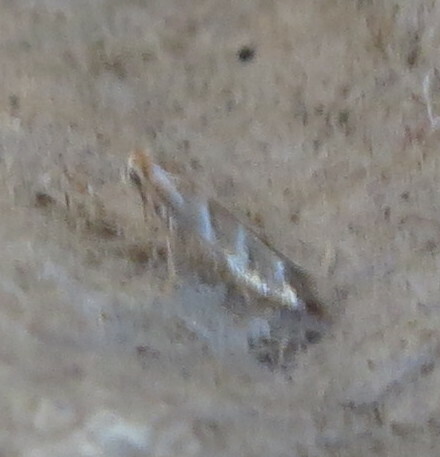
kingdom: Animalia
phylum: Arthropoda
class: Insecta
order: Lepidoptera
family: Gracillariidae
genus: Cameraria
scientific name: Cameraria ohridella
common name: Horse-chestnut leaf-miner
